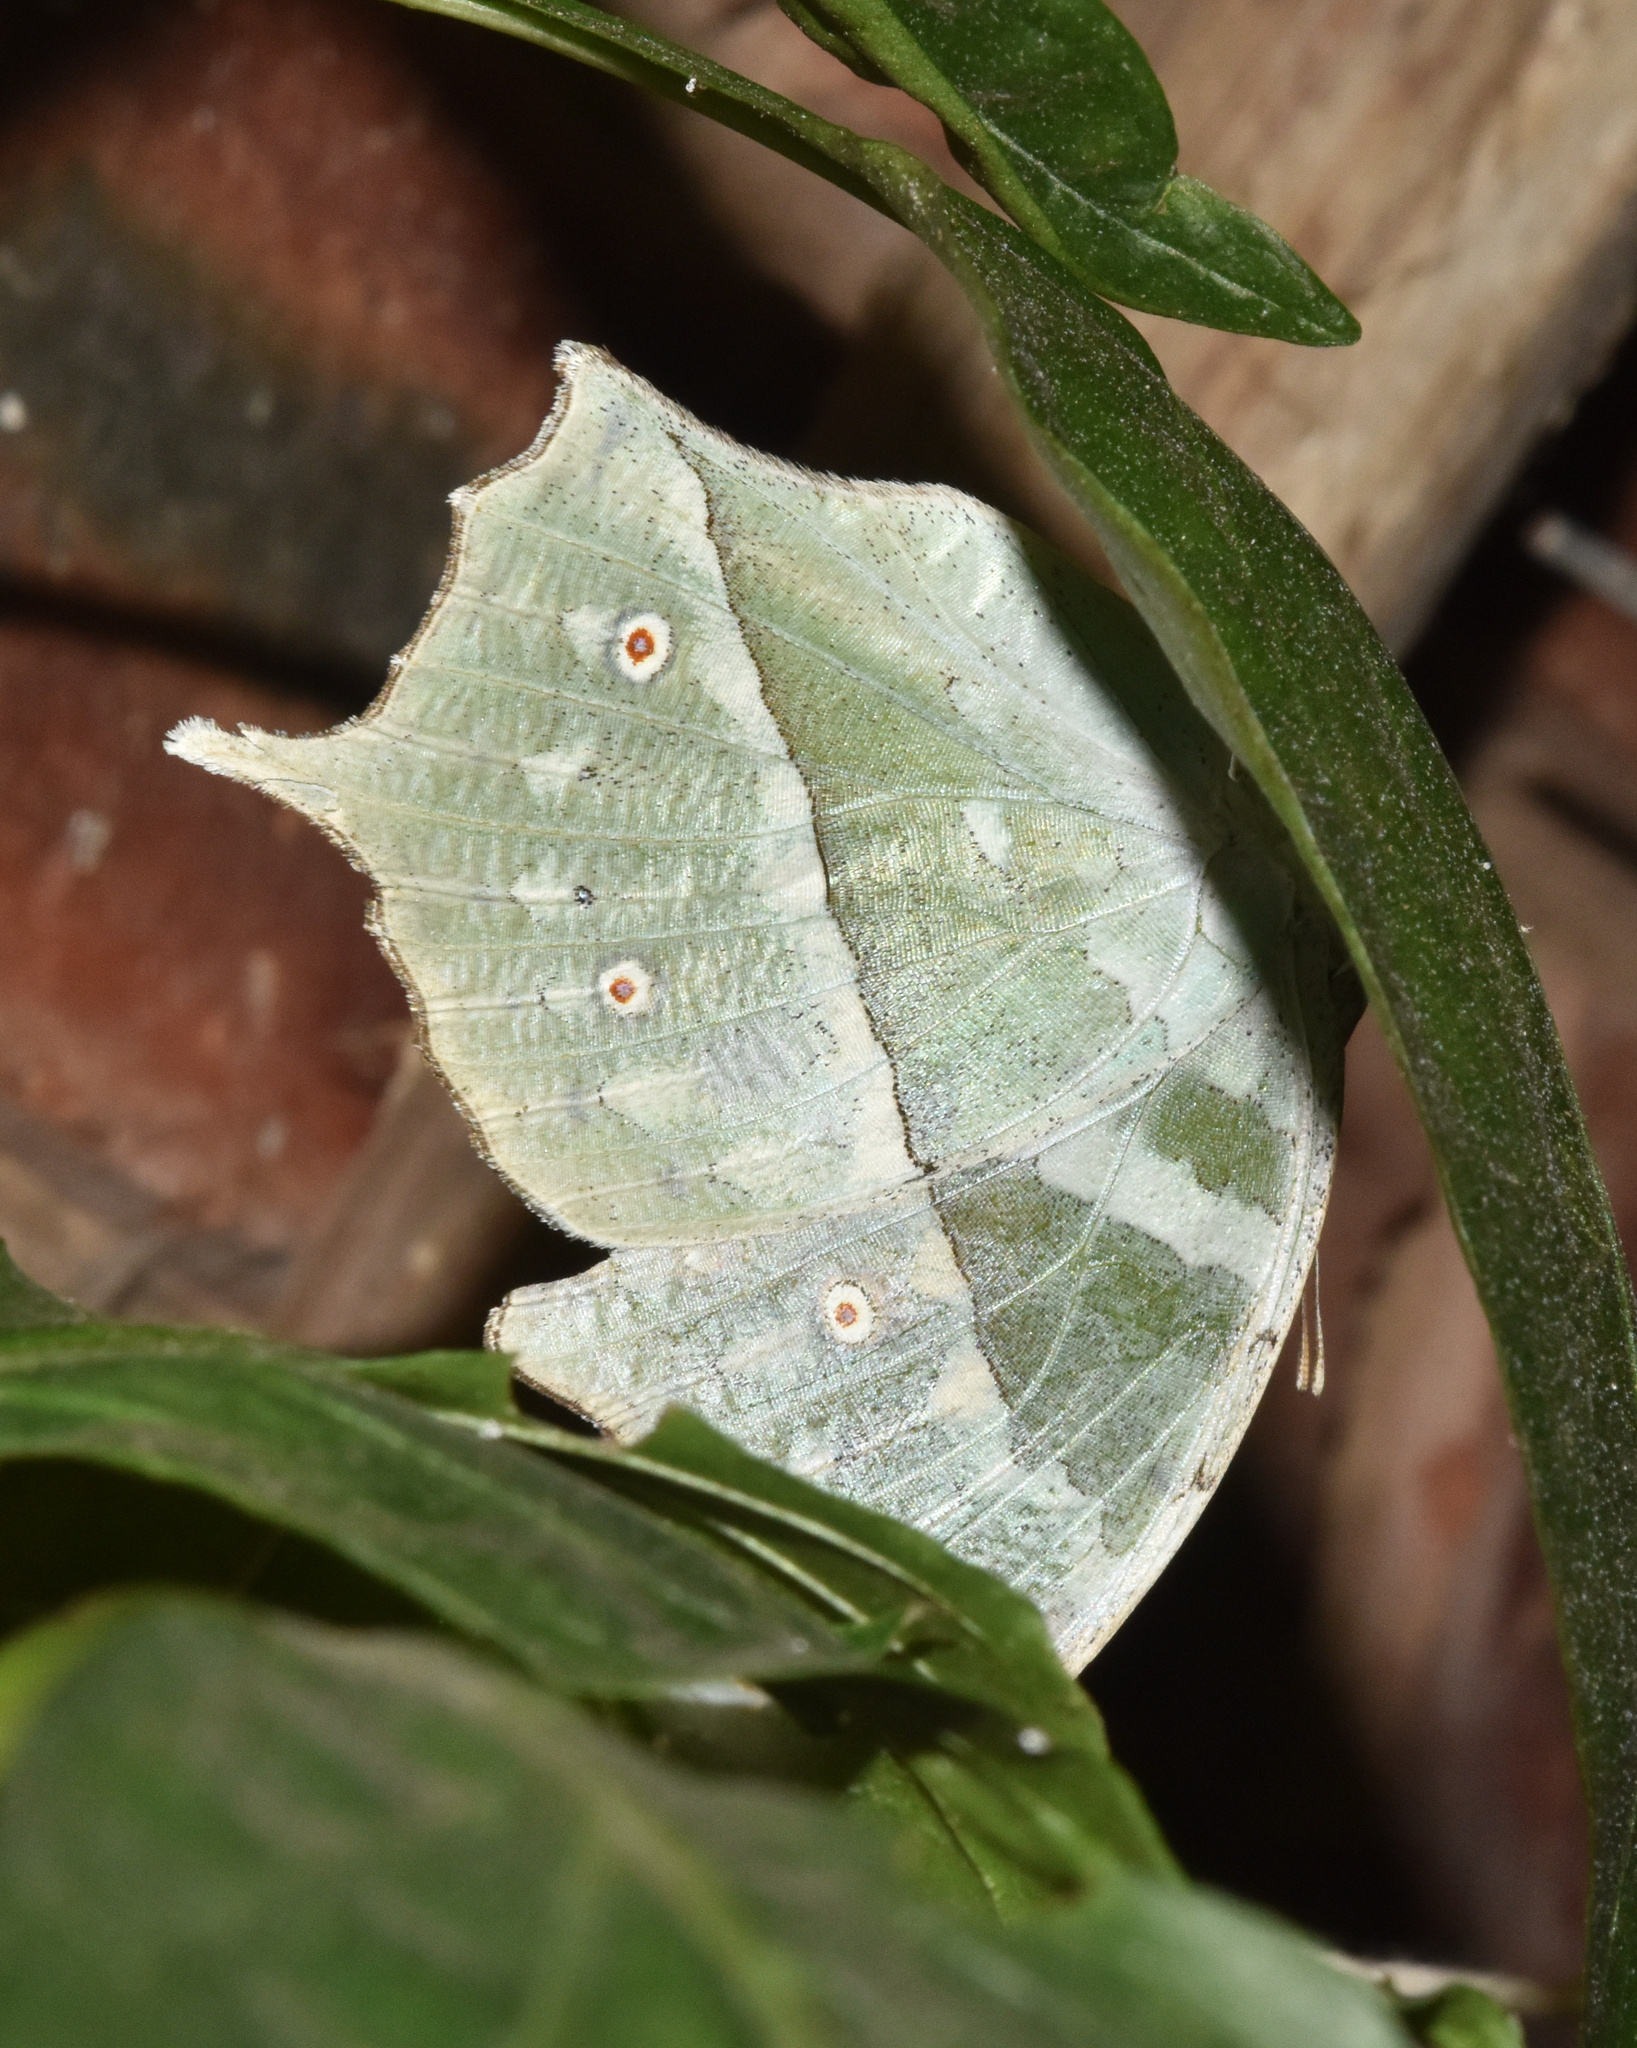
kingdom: Animalia
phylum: Arthropoda
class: Insecta
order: Lepidoptera
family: Nymphalidae
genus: Salamis
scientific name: Salamis Protogoniomorpha parhassus
